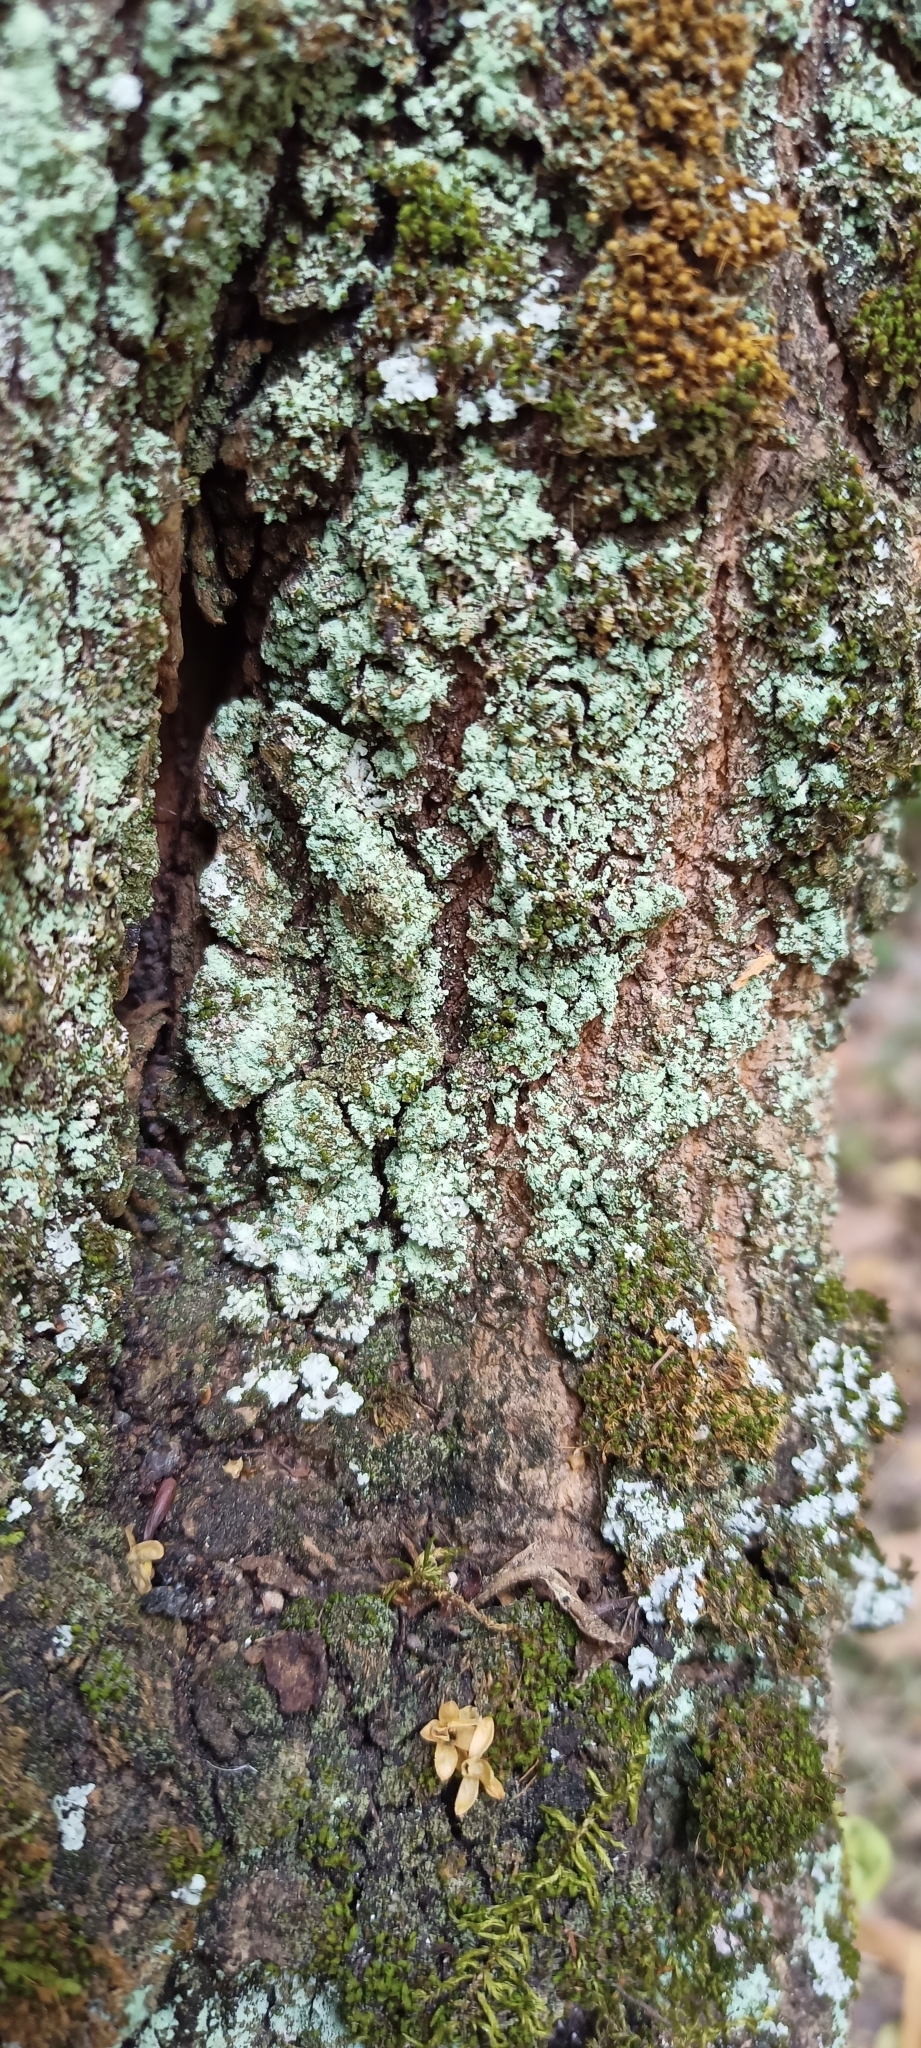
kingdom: Fungi
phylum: Ascomycota
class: Lecanoromycetes
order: Teloschistales
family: Leprocaulaceae
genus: Leprocaulon
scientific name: Leprocaulon quisquiliare
